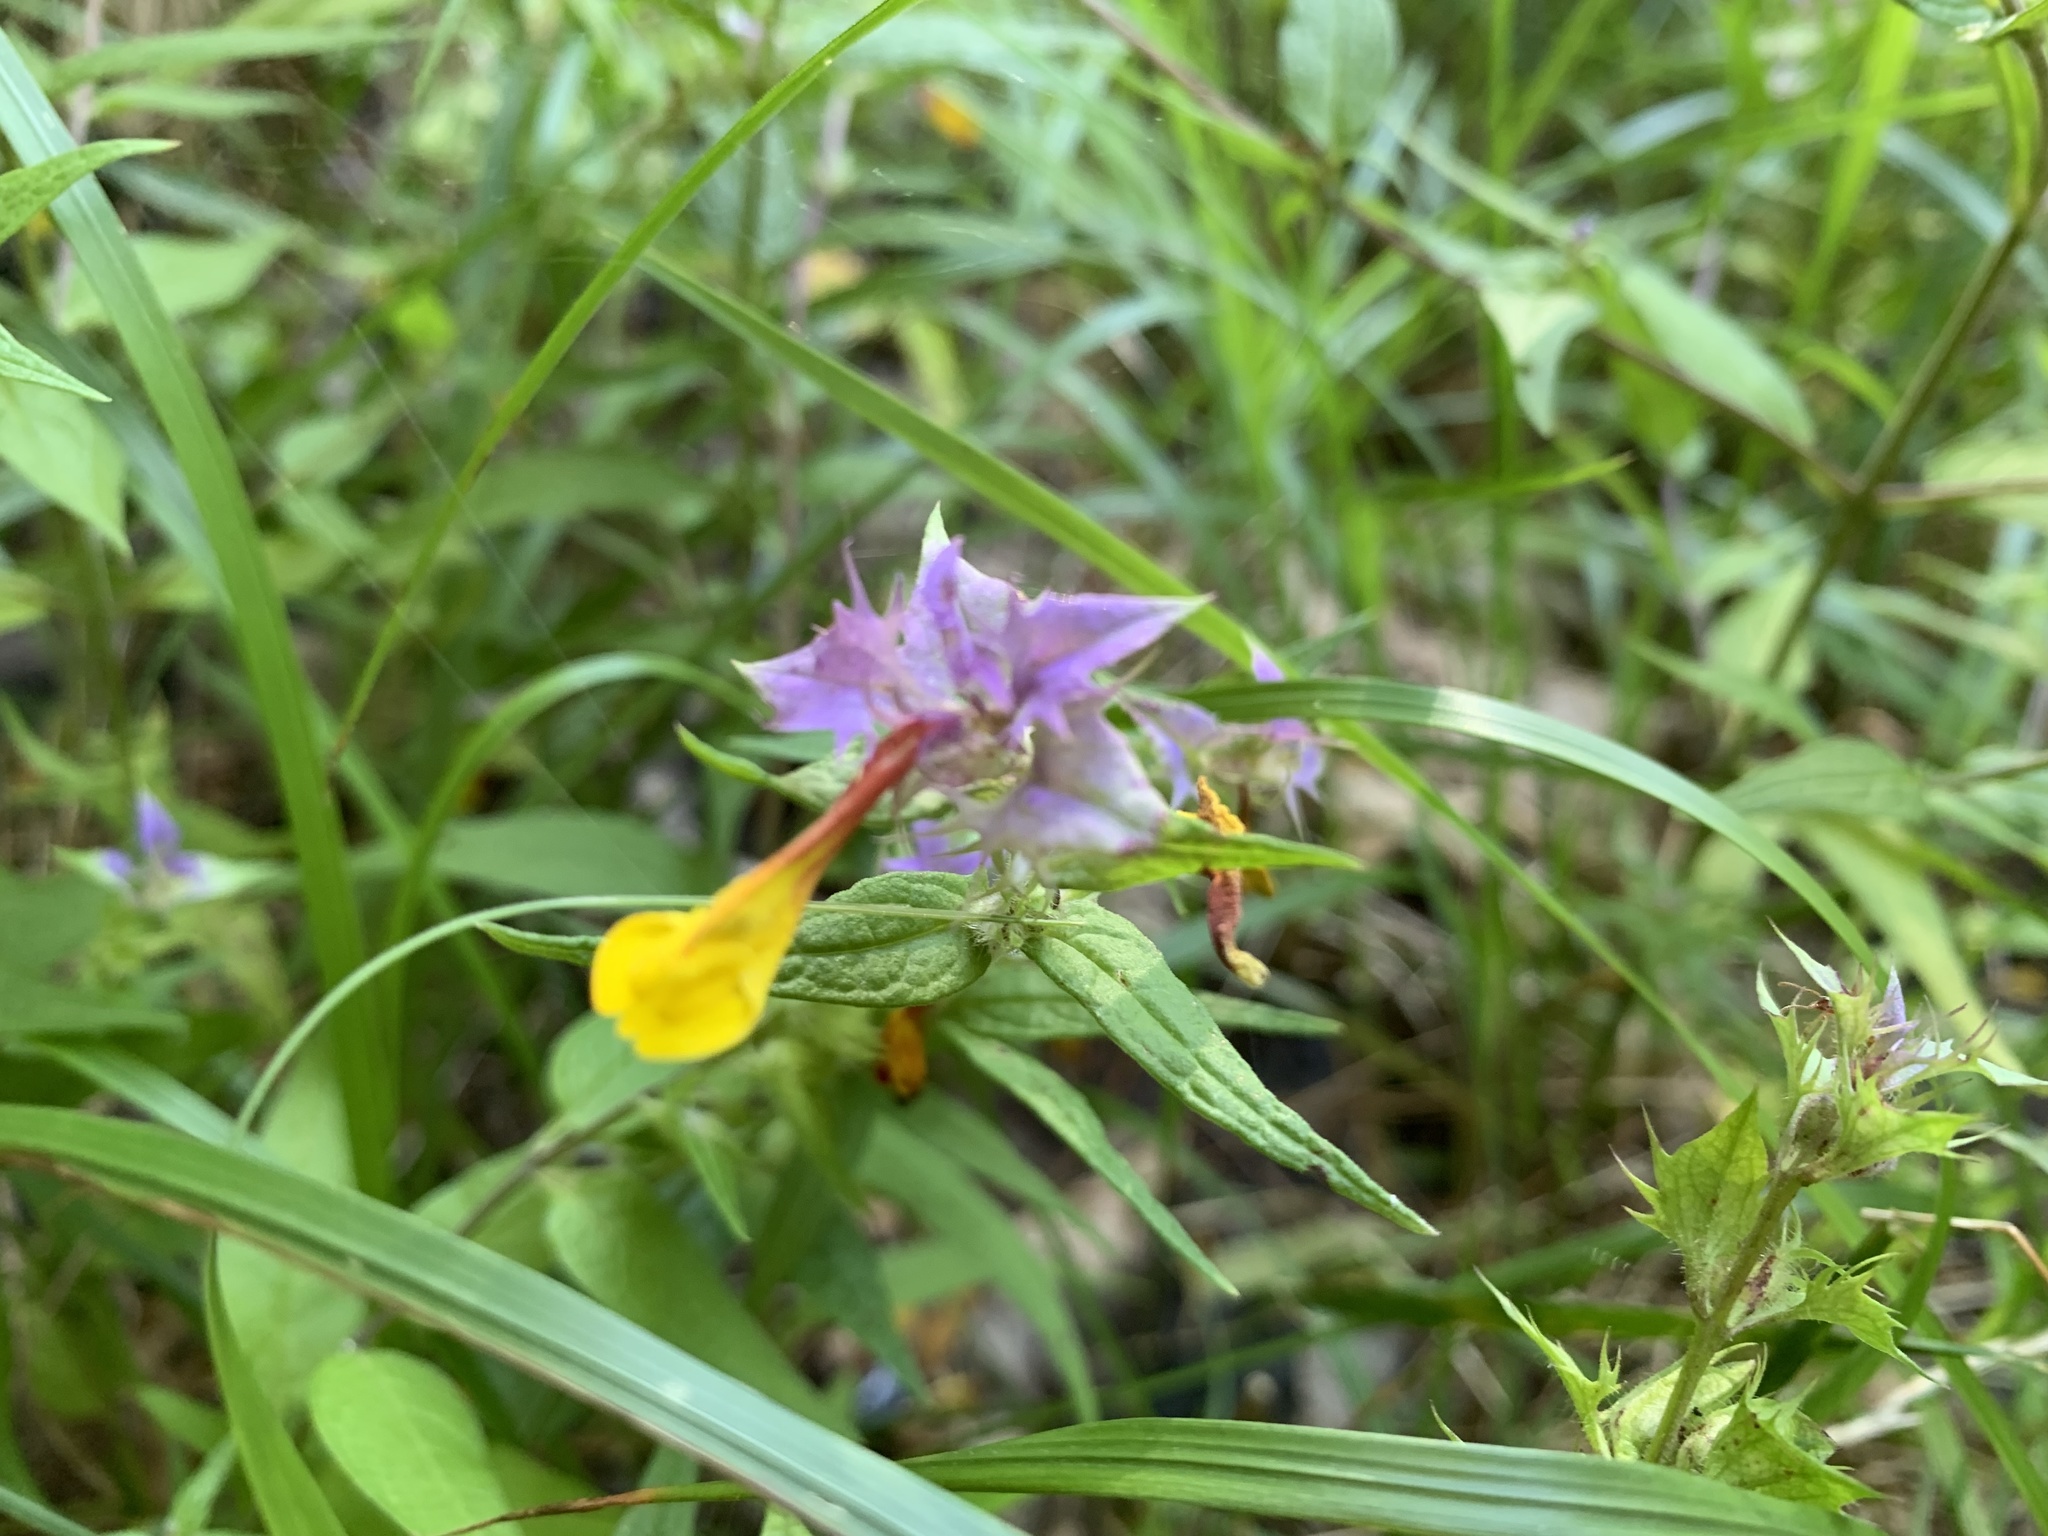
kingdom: Plantae
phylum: Tracheophyta
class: Magnoliopsida
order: Lamiales
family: Orobanchaceae
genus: Melampyrum
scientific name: Melampyrum nemorosum
